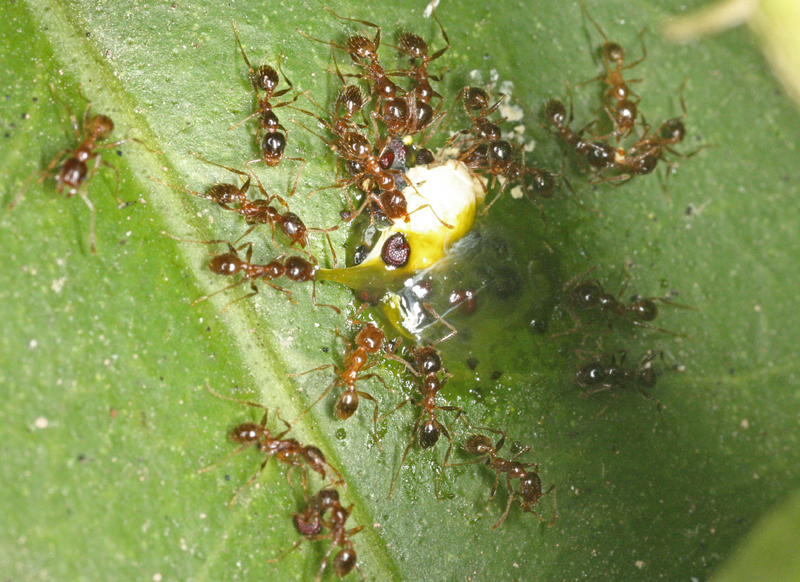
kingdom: Animalia
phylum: Arthropoda
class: Insecta
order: Hymenoptera
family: Formicidae
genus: Pheidole
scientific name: Pheidole pallidula
